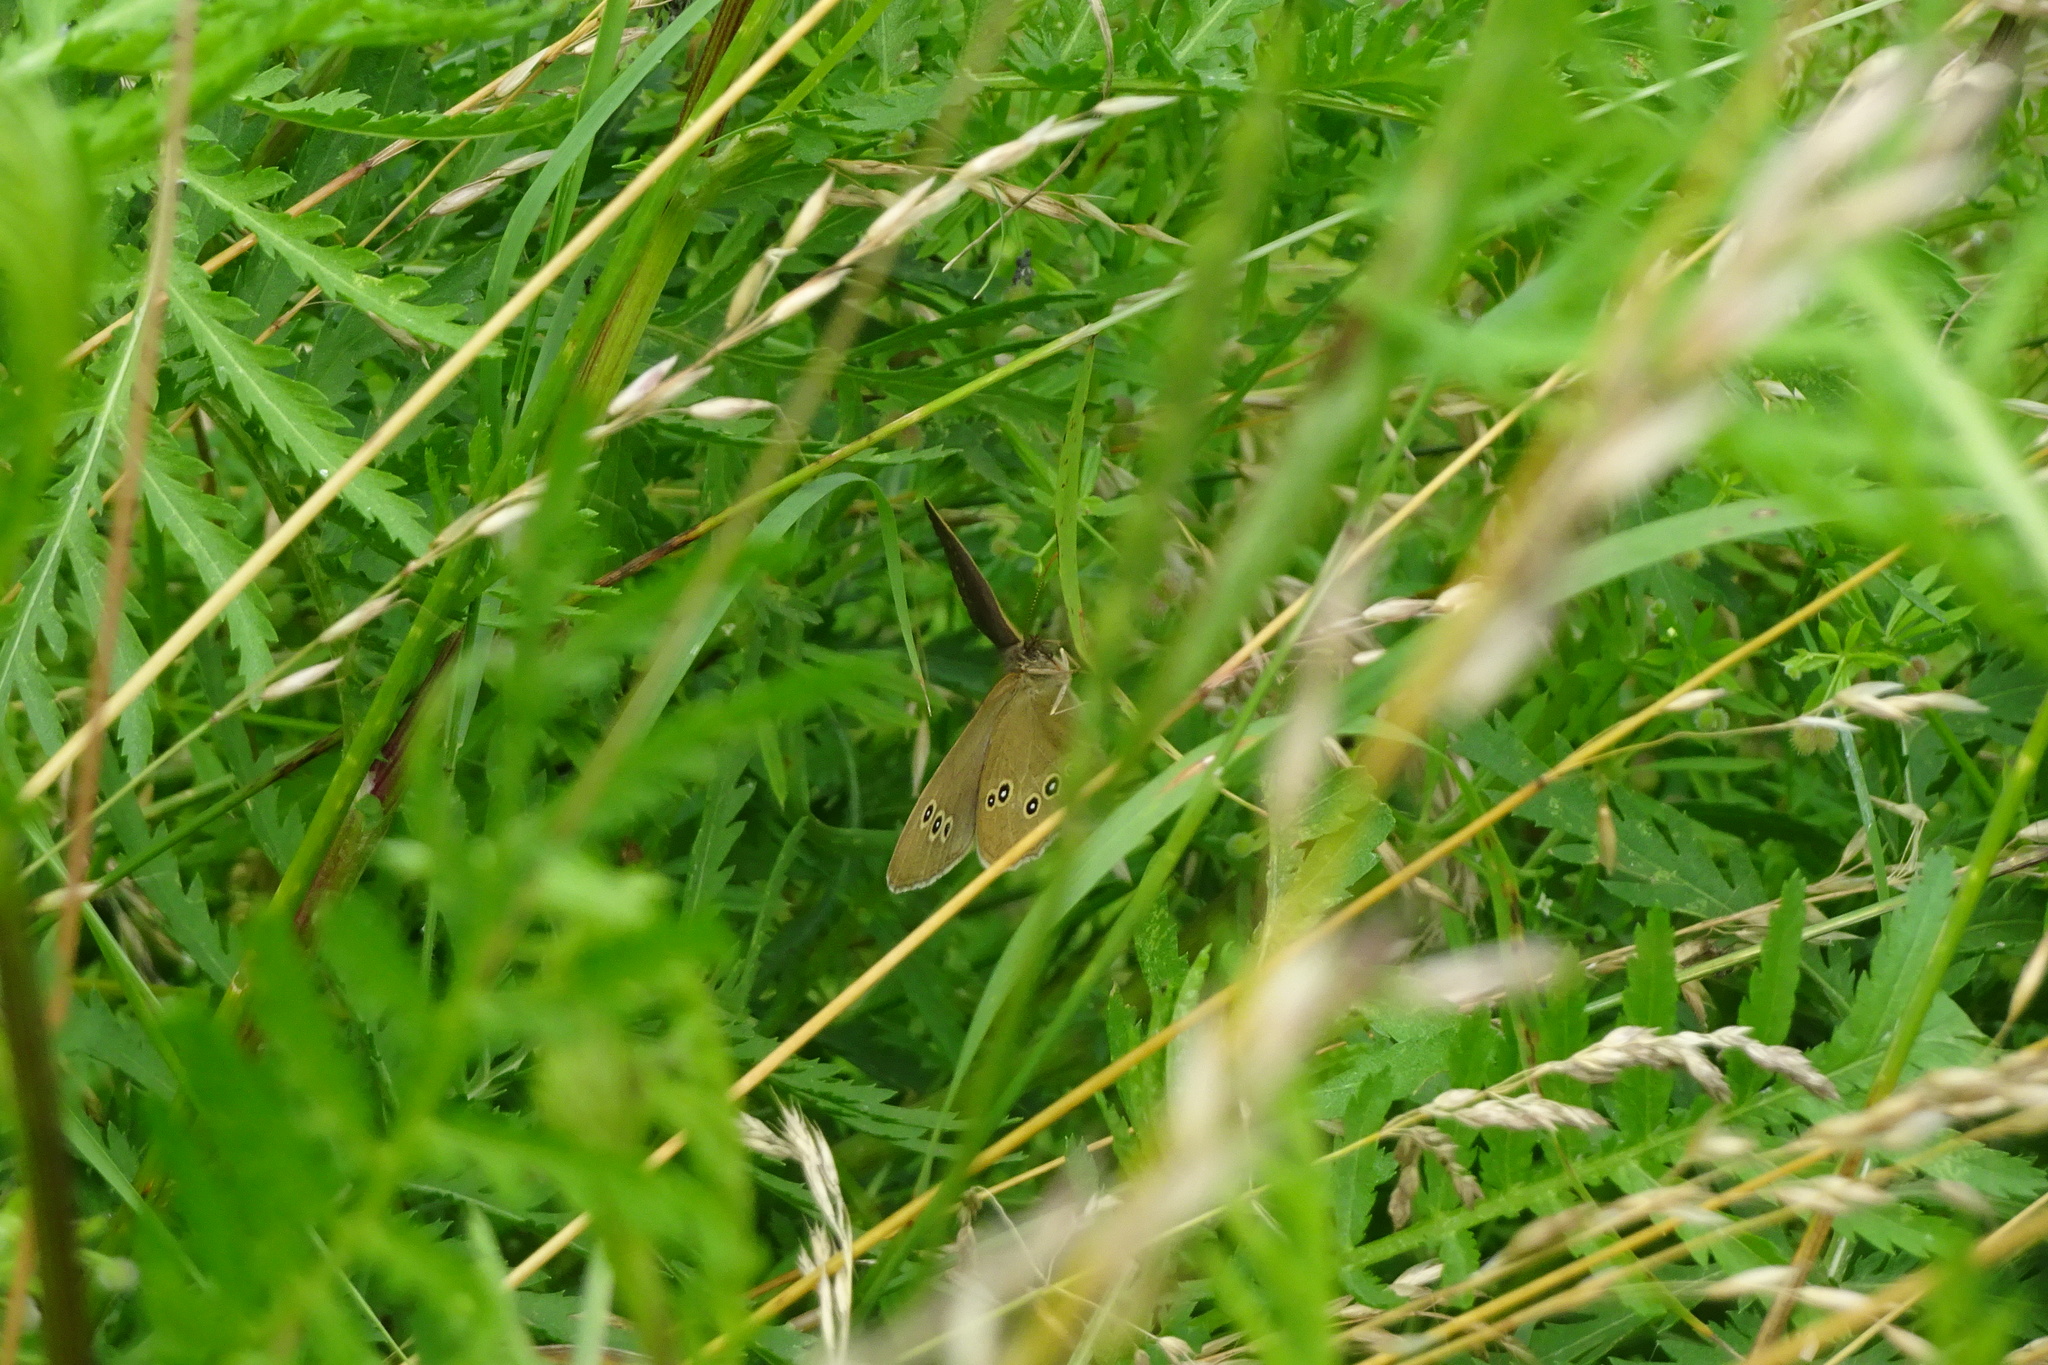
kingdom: Animalia
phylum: Arthropoda
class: Insecta
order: Lepidoptera
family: Nymphalidae
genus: Aphantopus
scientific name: Aphantopus hyperantus
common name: Ringlet
